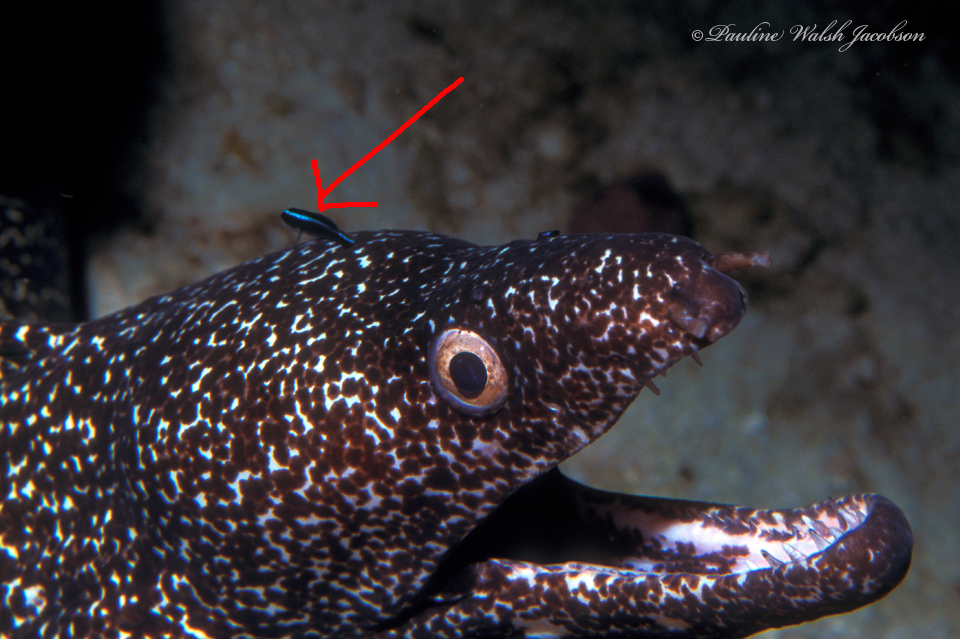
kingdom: Animalia
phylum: Chordata
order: Perciformes
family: Gobiidae
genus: Elacatinus
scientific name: Elacatinus oceanops
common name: Northern neon goby
